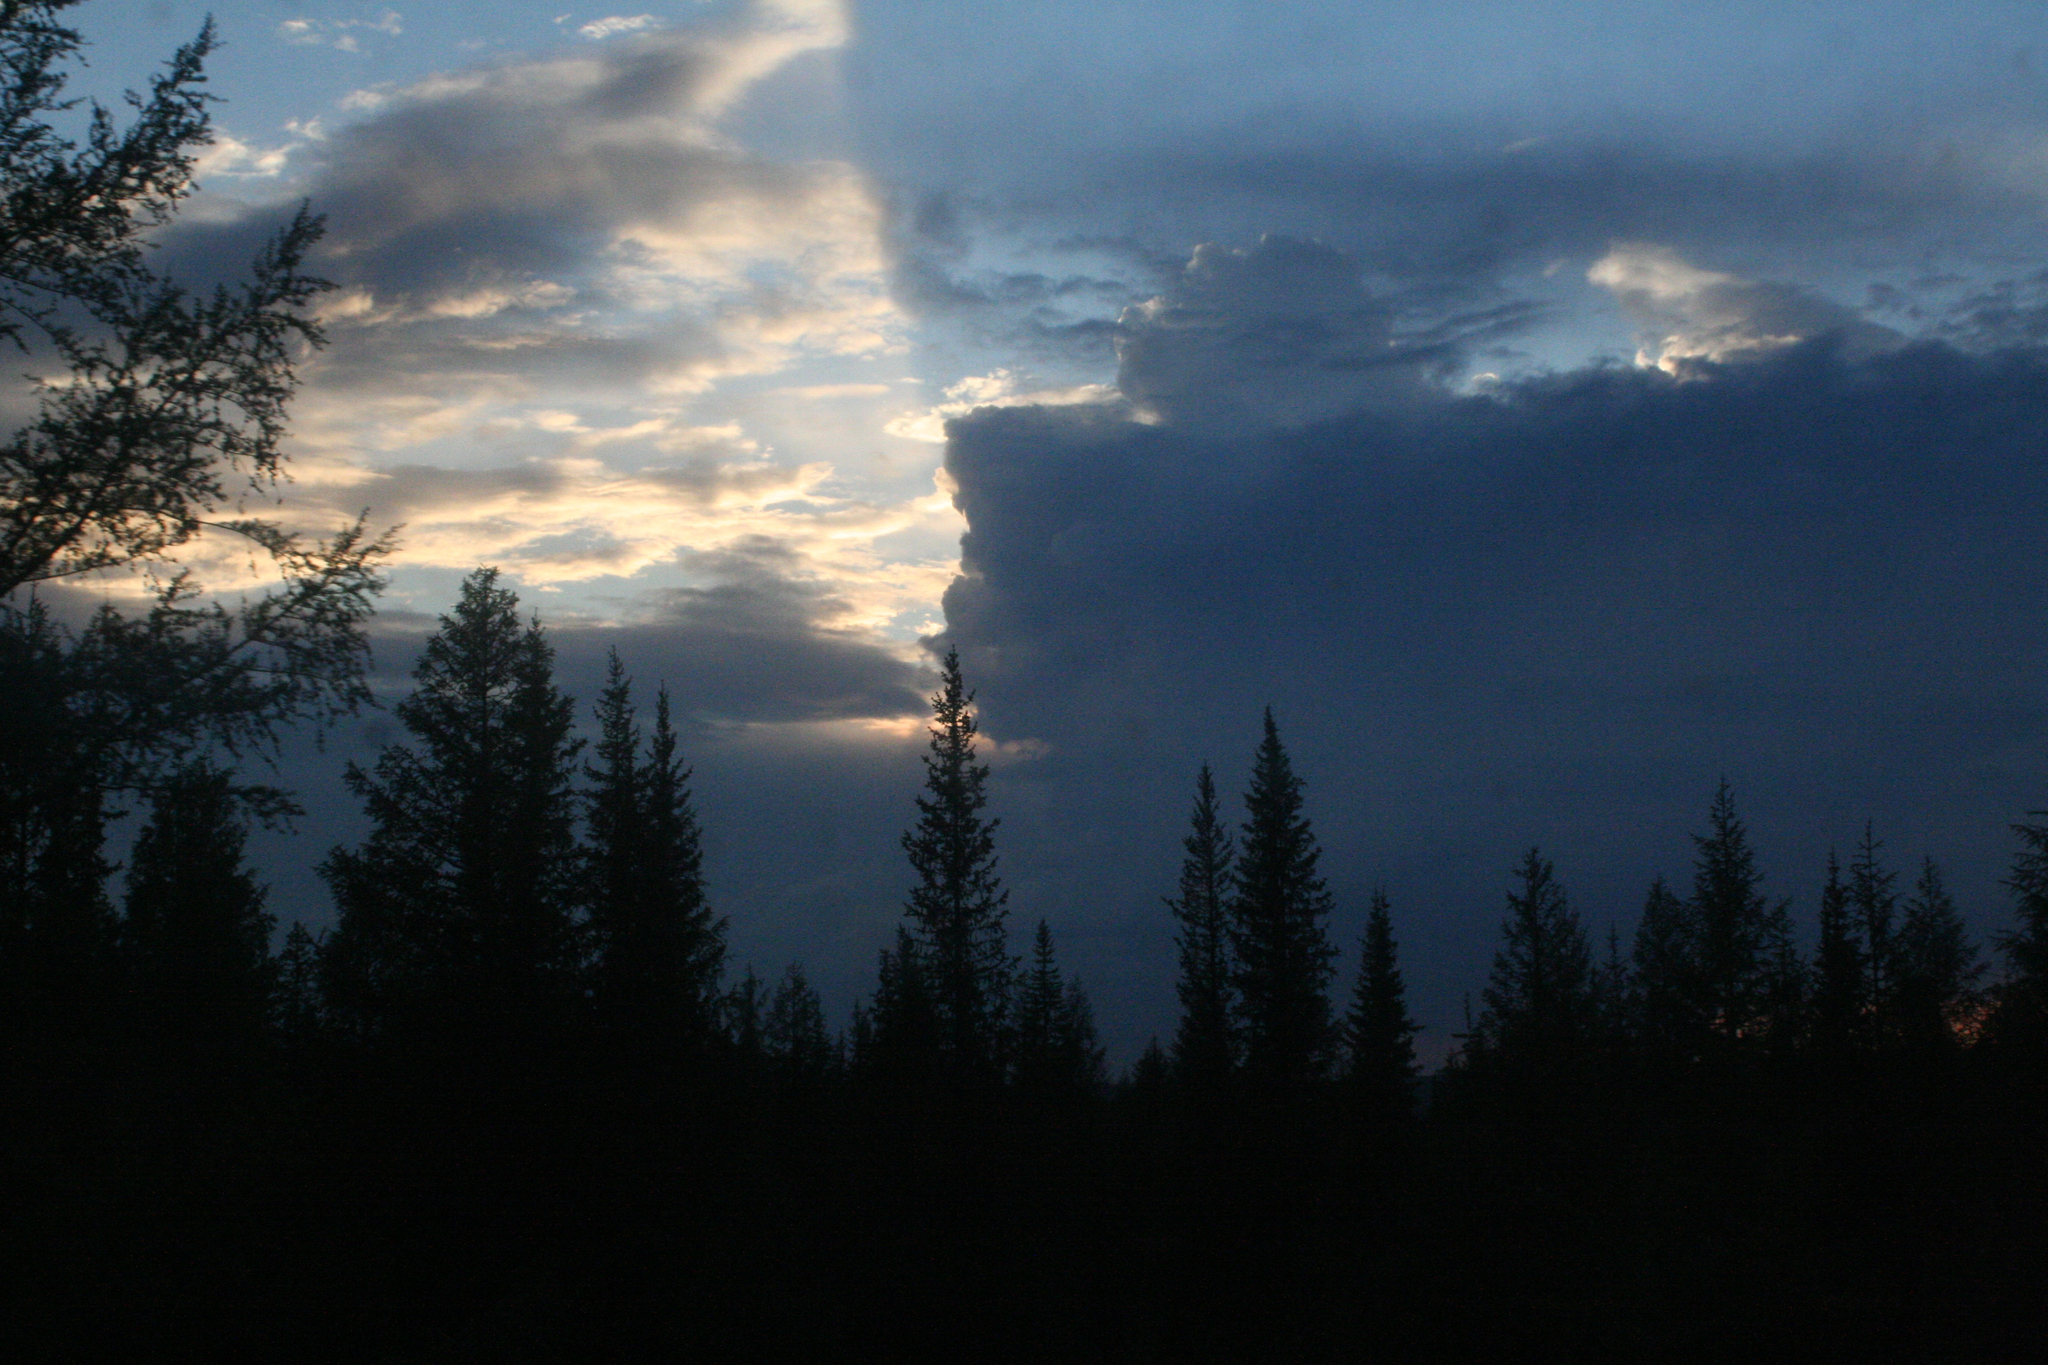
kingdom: Plantae
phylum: Tracheophyta
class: Pinopsida
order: Pinales
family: Pinaceae
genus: Picea
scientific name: Picea obovata
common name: Siberian spruce
